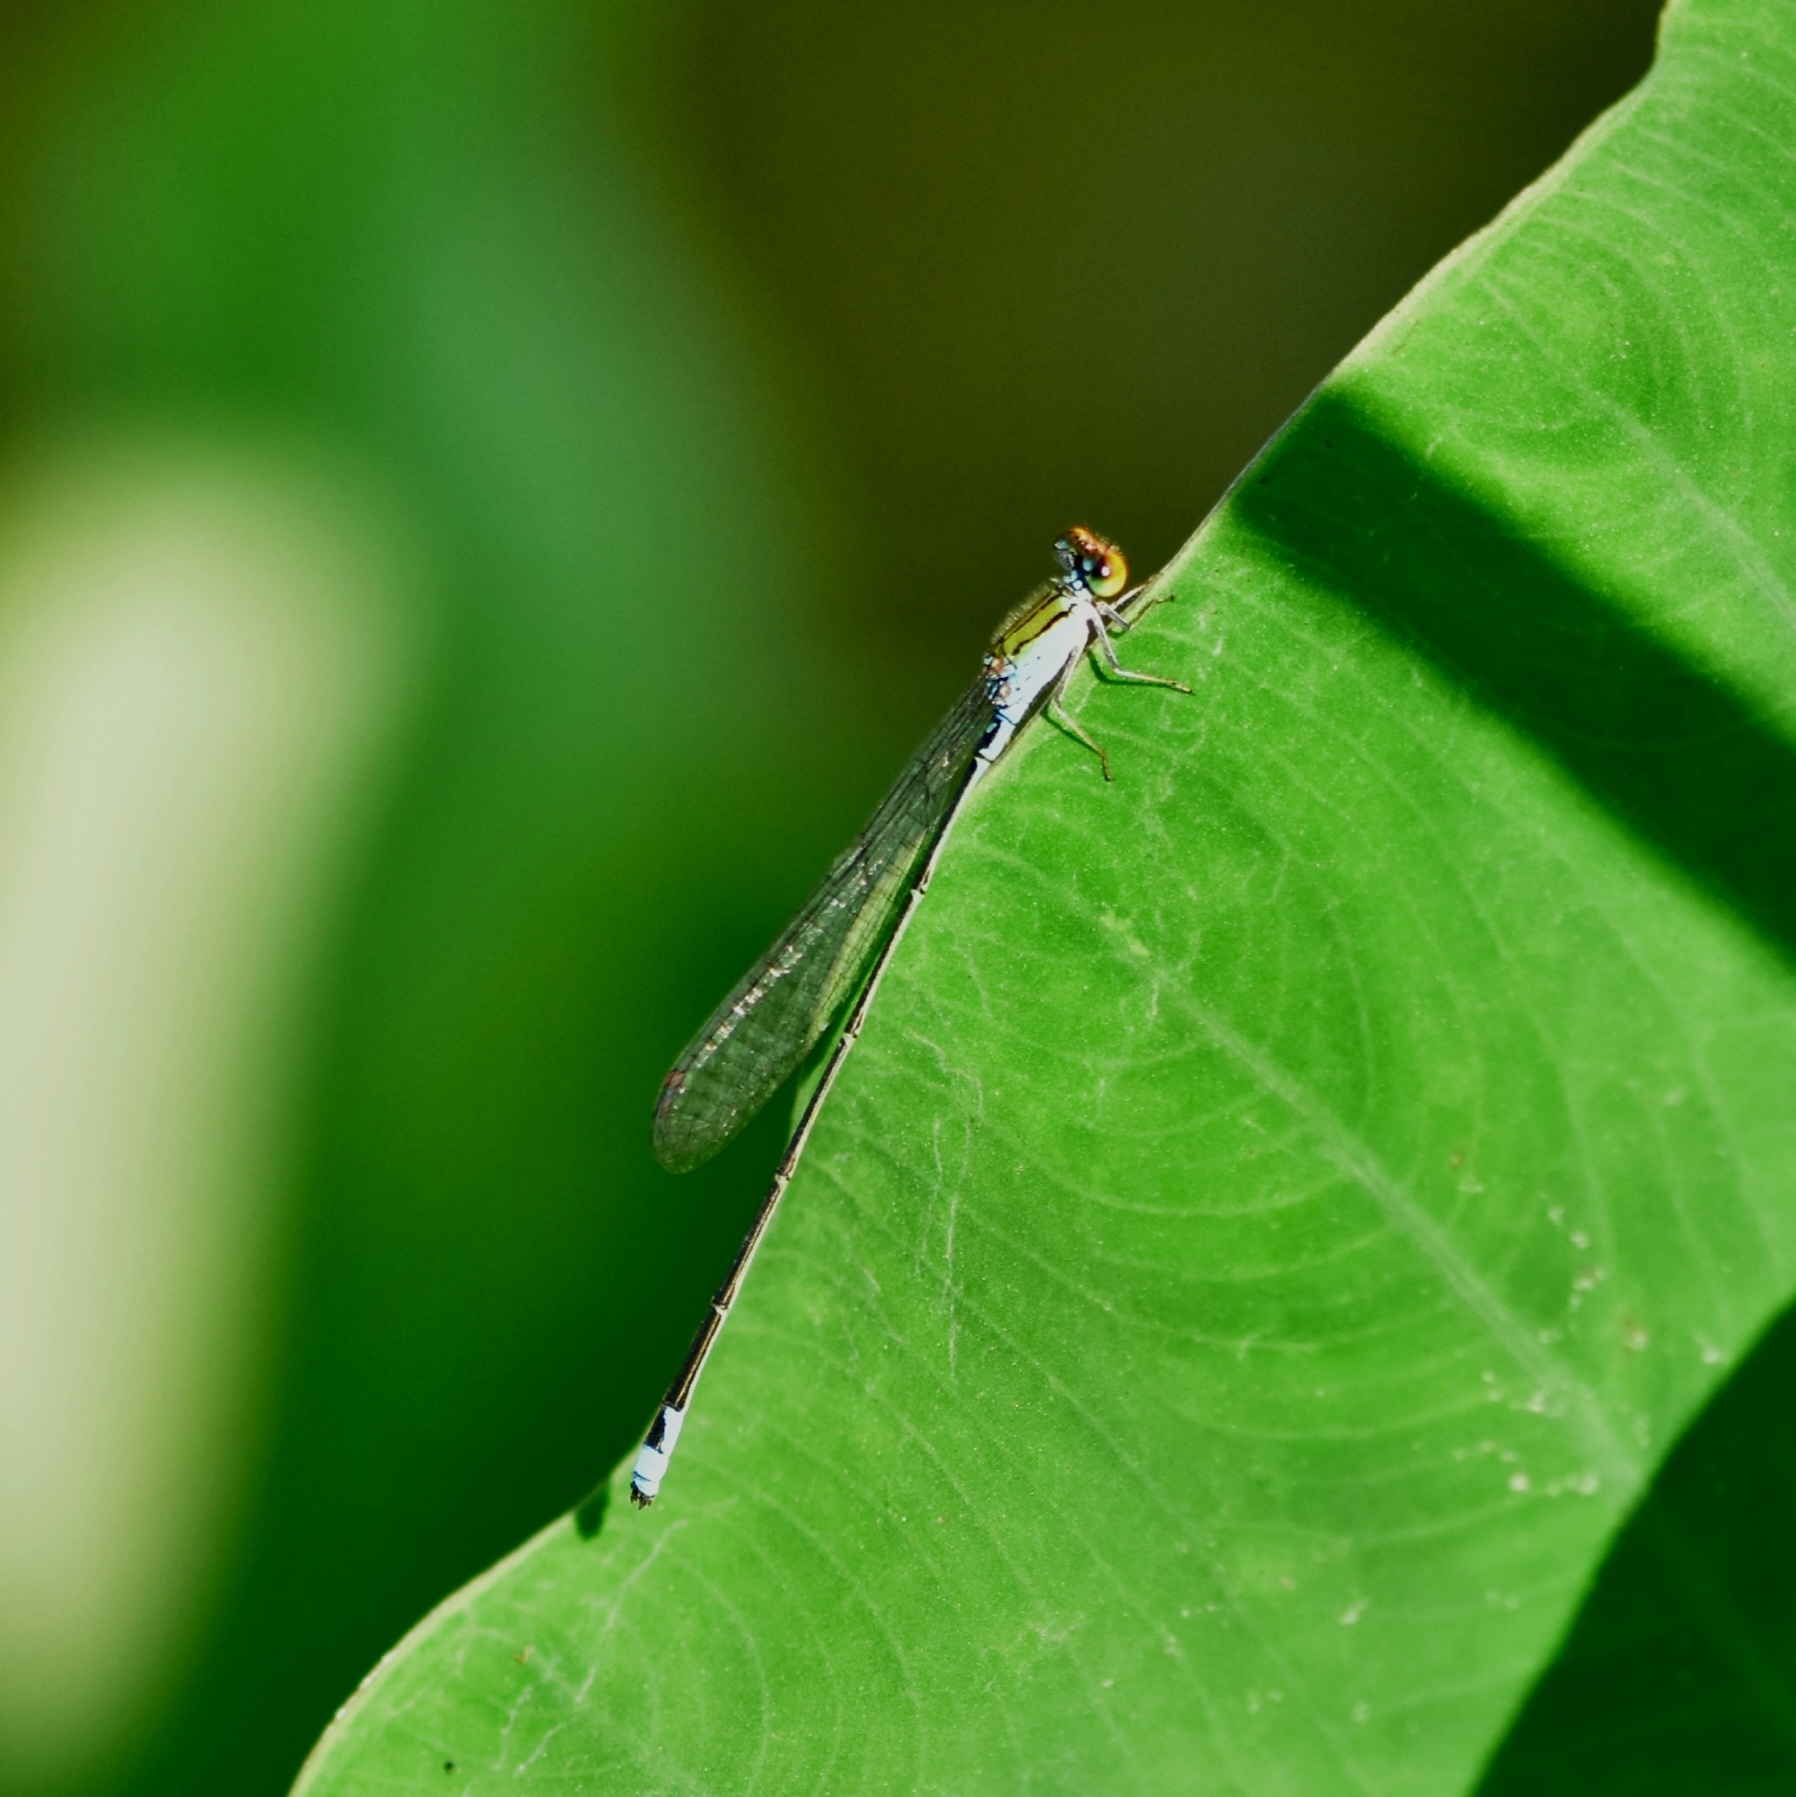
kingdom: Animalia
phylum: Arthropoda
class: Insecta
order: Odonata
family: Coenagrionidae
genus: Pseudagrion
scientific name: Pseudagrion rubriceps
